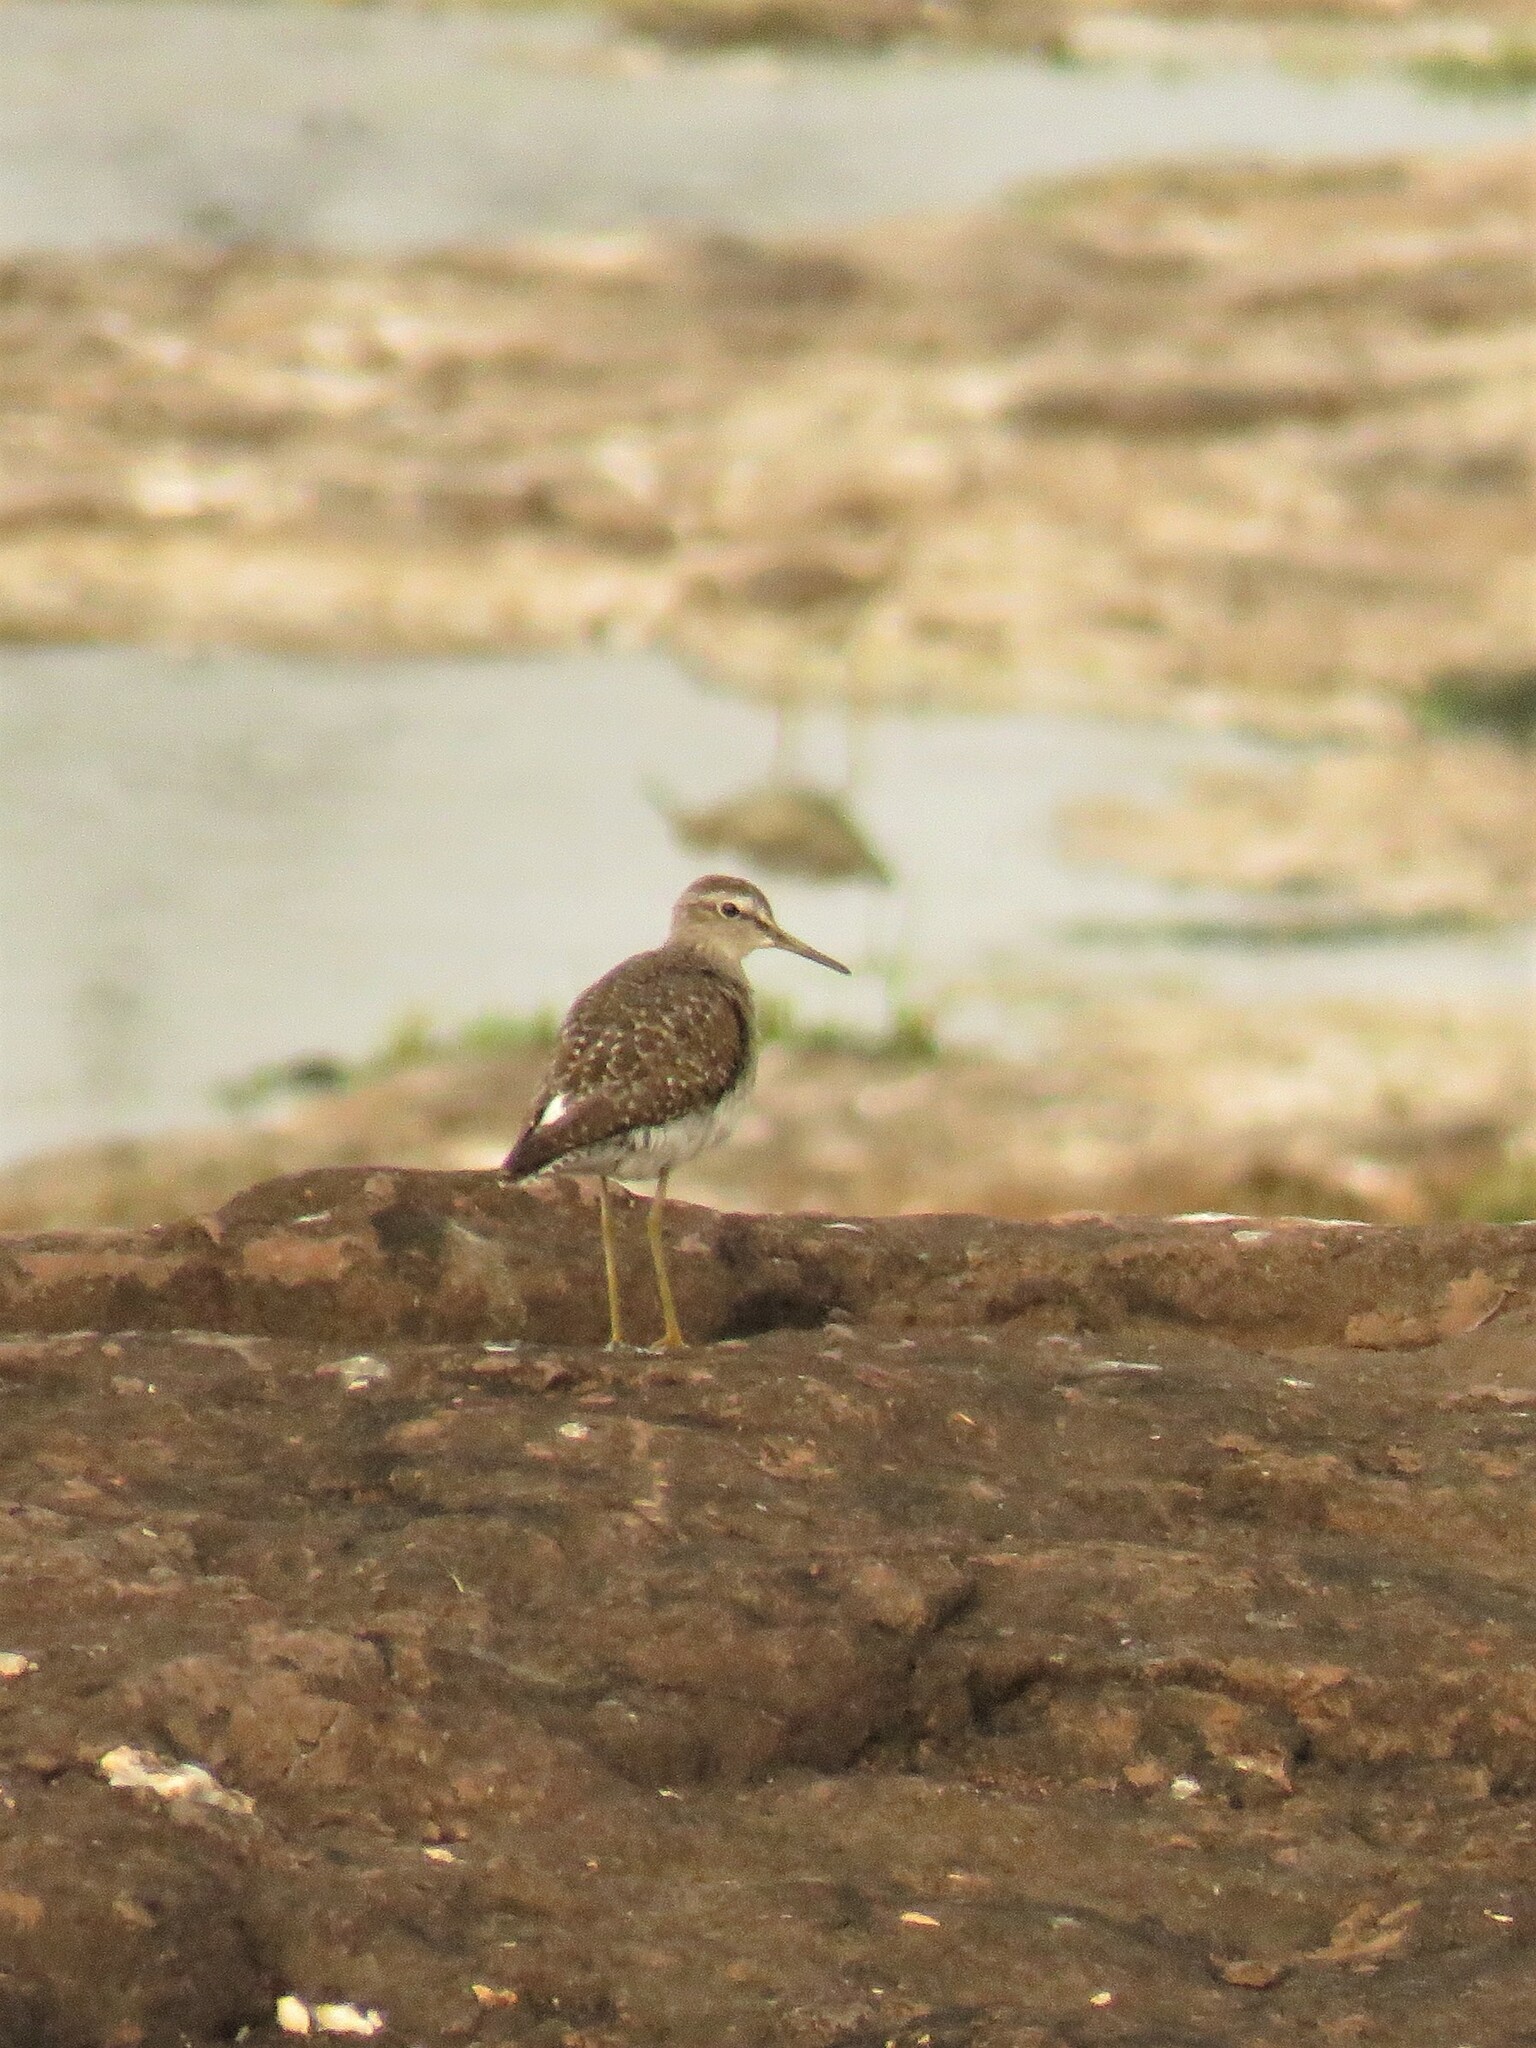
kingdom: Animalia
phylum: Chordata
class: Aves
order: Charadriiformes
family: Scolopacidae
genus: Tringa
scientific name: Tringa glareola
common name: Wood sandpiper
